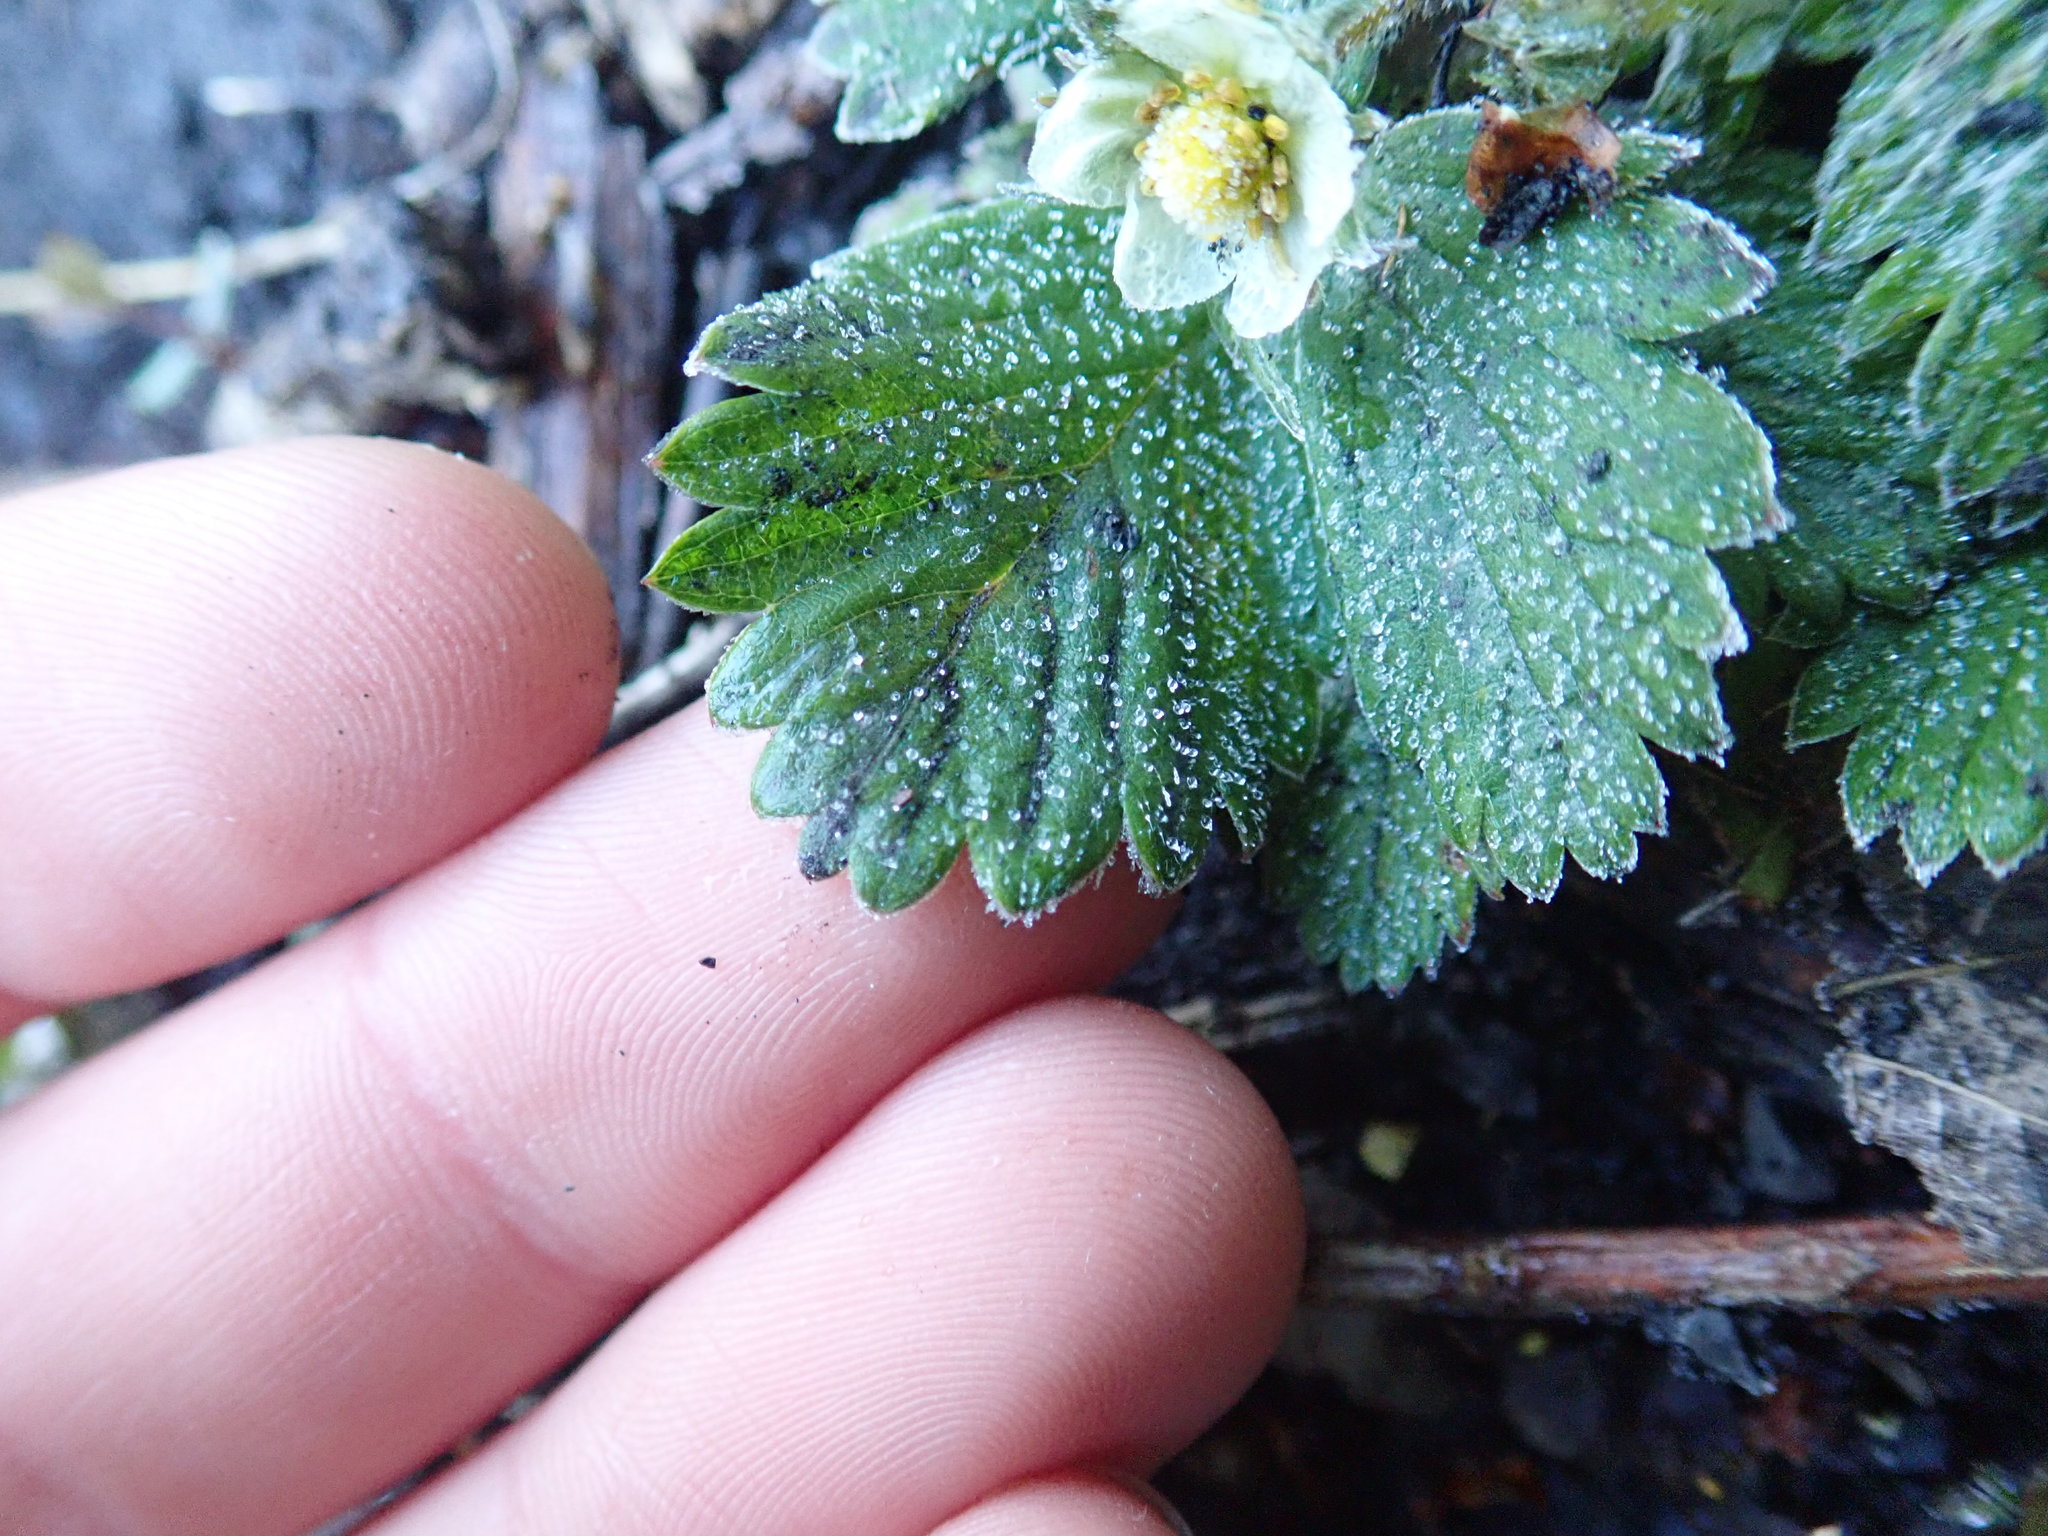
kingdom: Plantae
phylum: Tracheophyta
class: Magnoliopsida
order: Rosales
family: Rosaceae
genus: Fragaria
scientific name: Fragaria vesca
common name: Wild strawberry
